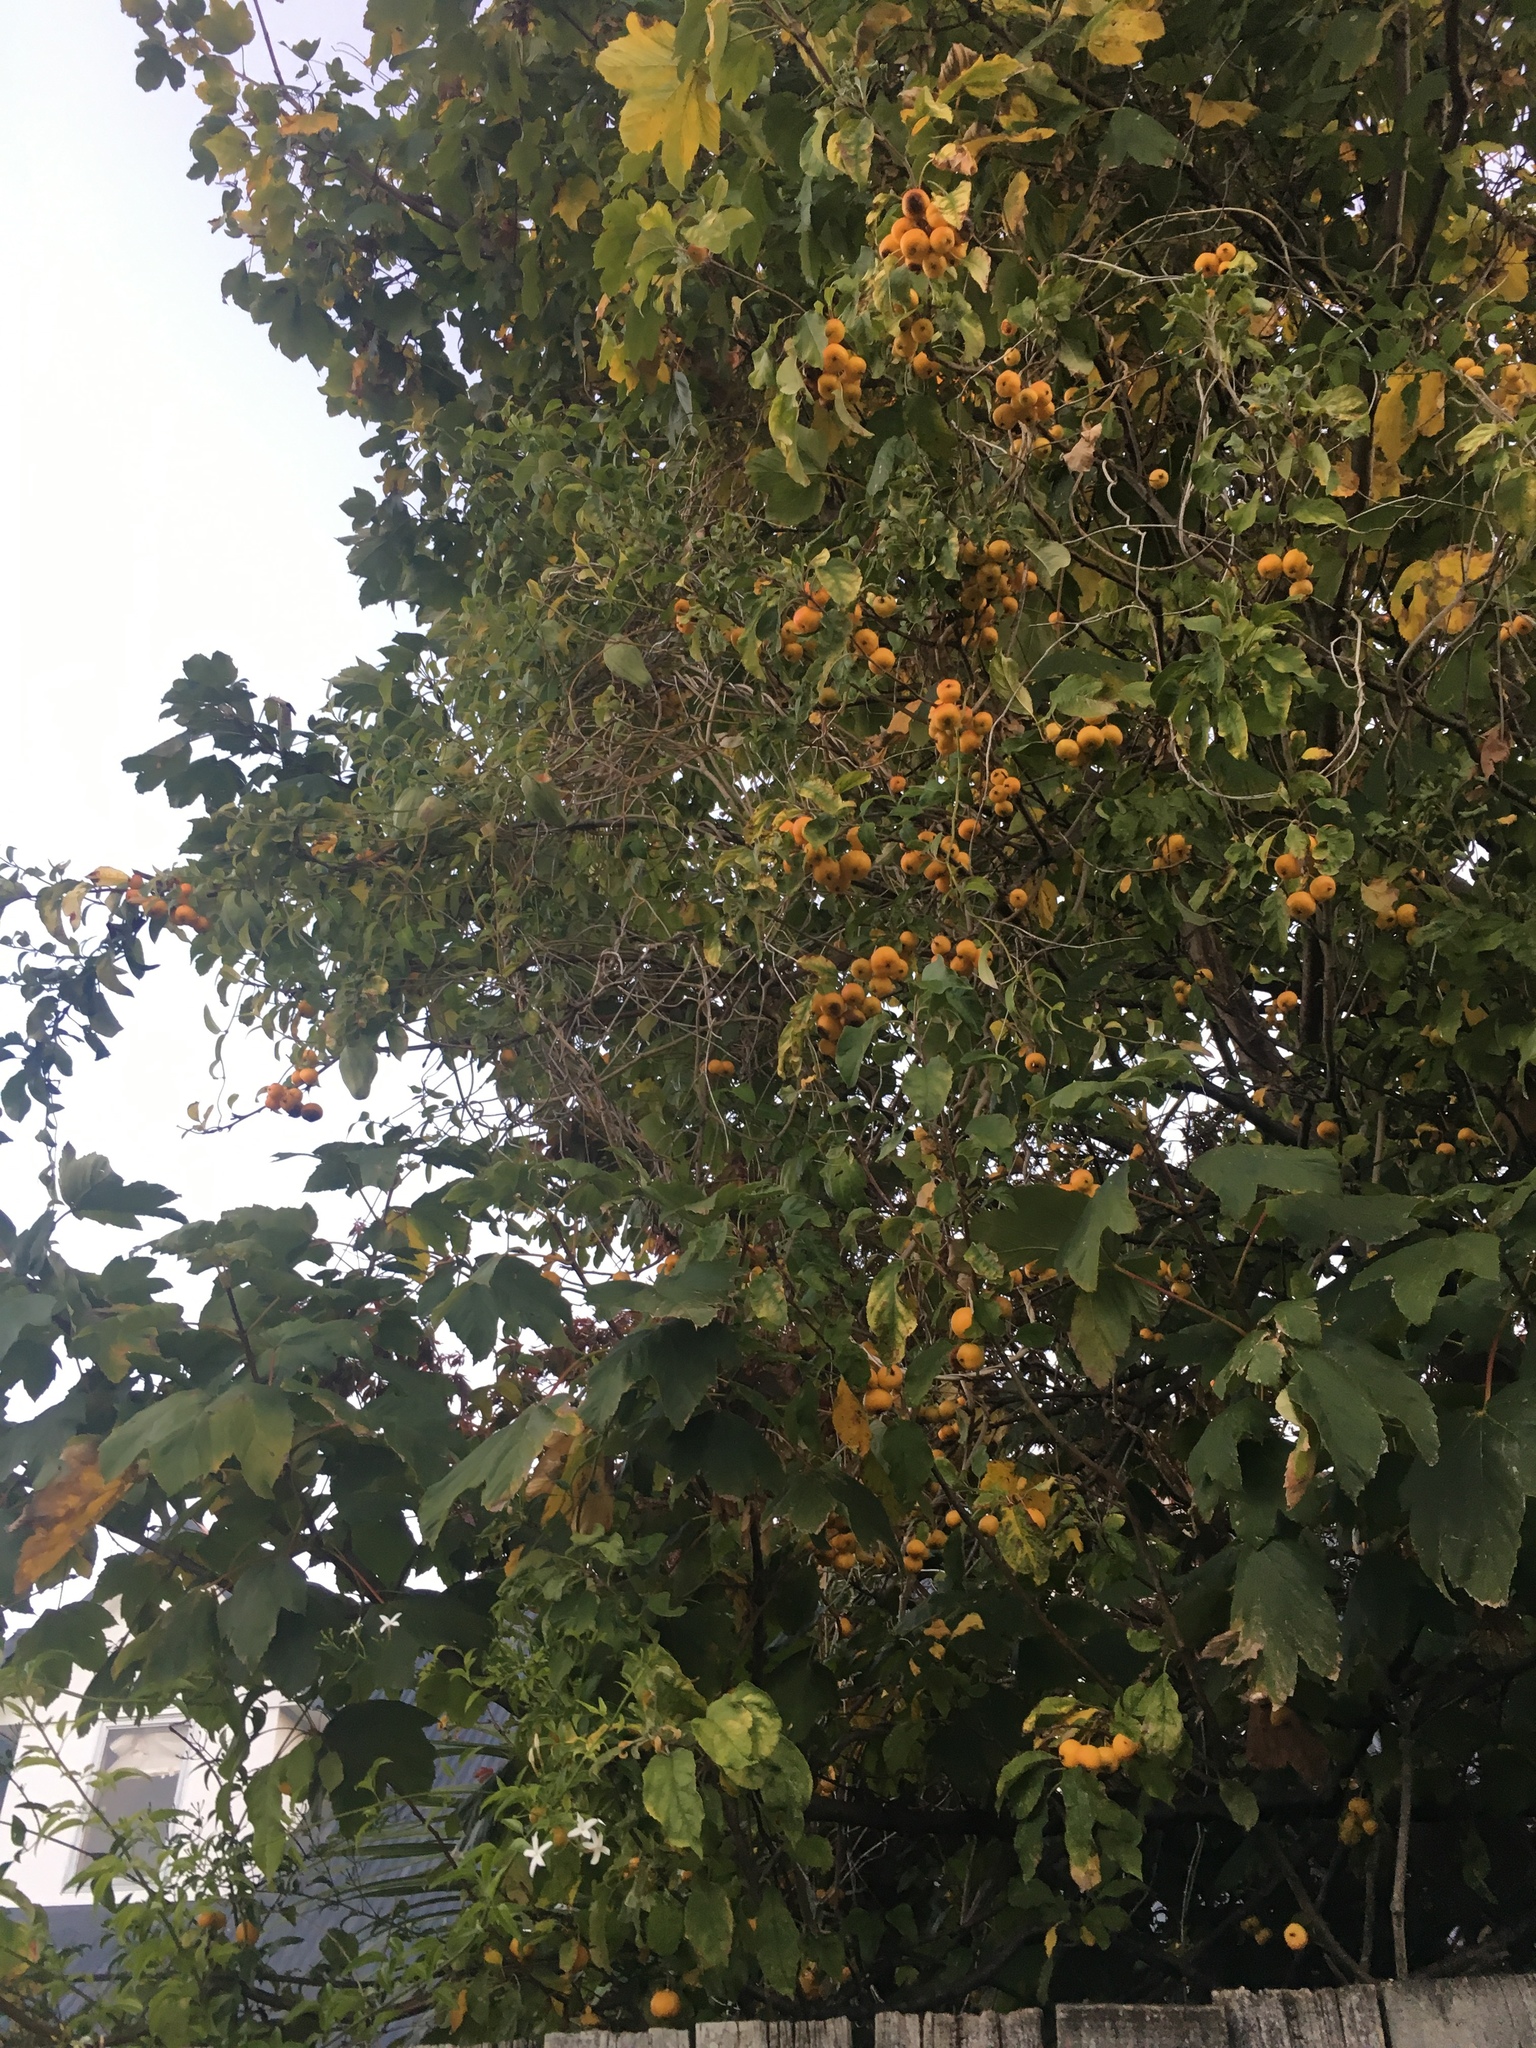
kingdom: Plantae
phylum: Tracheophyta
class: Magnoliopsida
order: Gentianales
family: Apocynaceae
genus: Araujia
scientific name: Araujia sericifera
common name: White bladderflower
